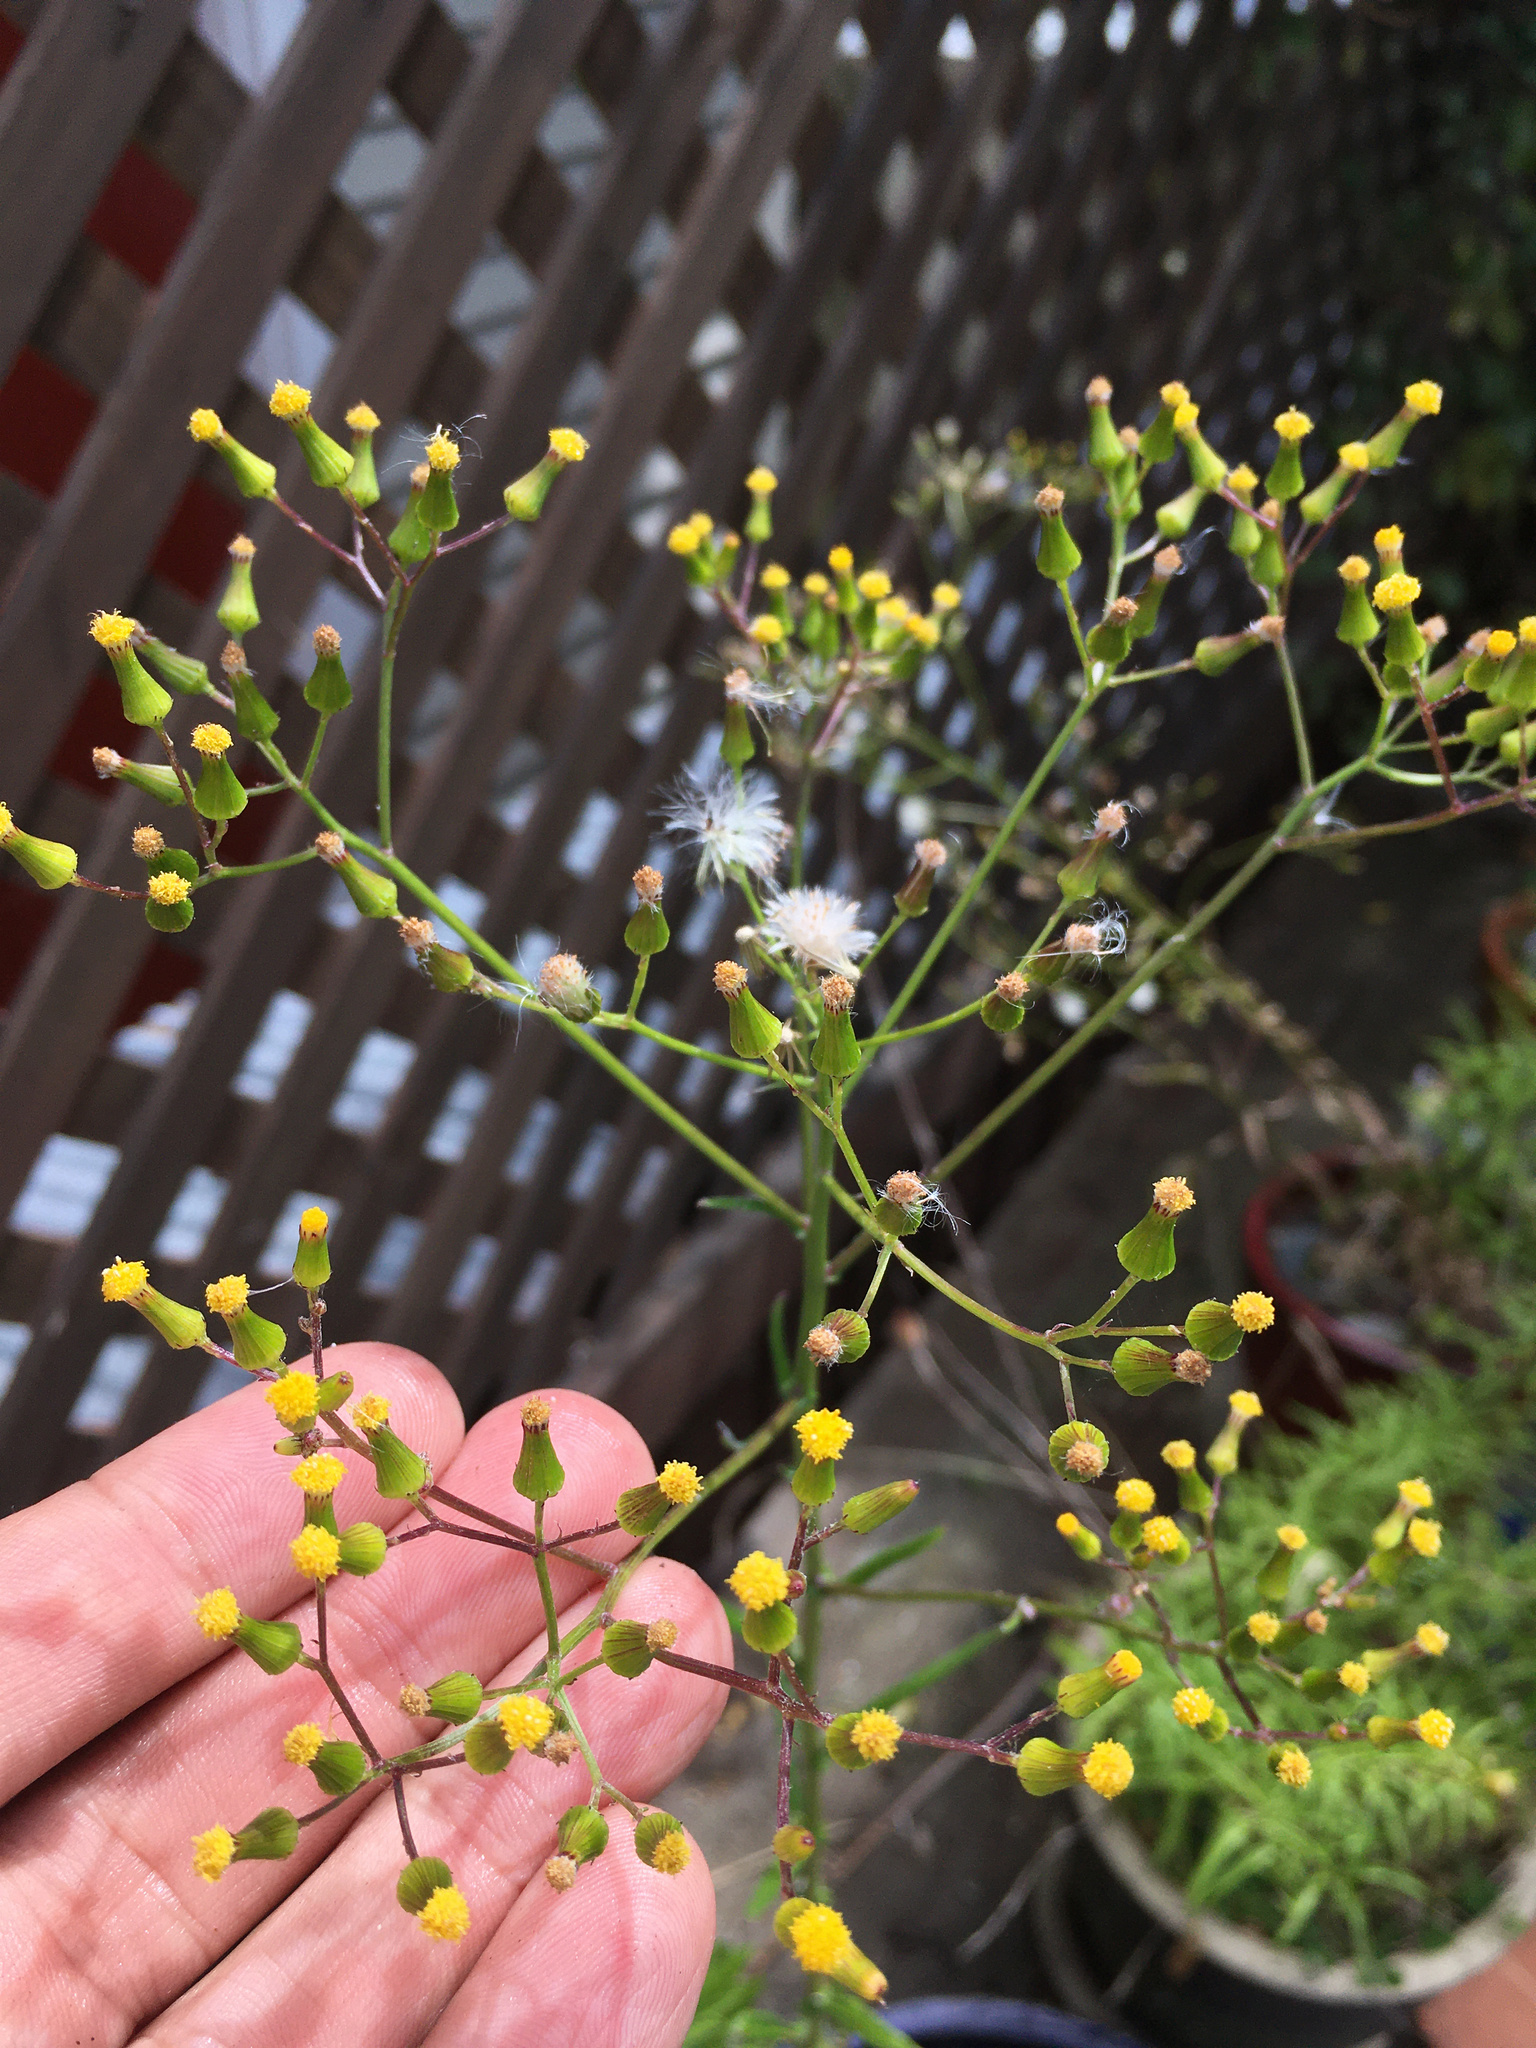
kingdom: Plantae
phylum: Tracheophyta
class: Magnoliopsida
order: Asterales
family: Asteraceae
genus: Senecio
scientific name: Senecio hispidulus
